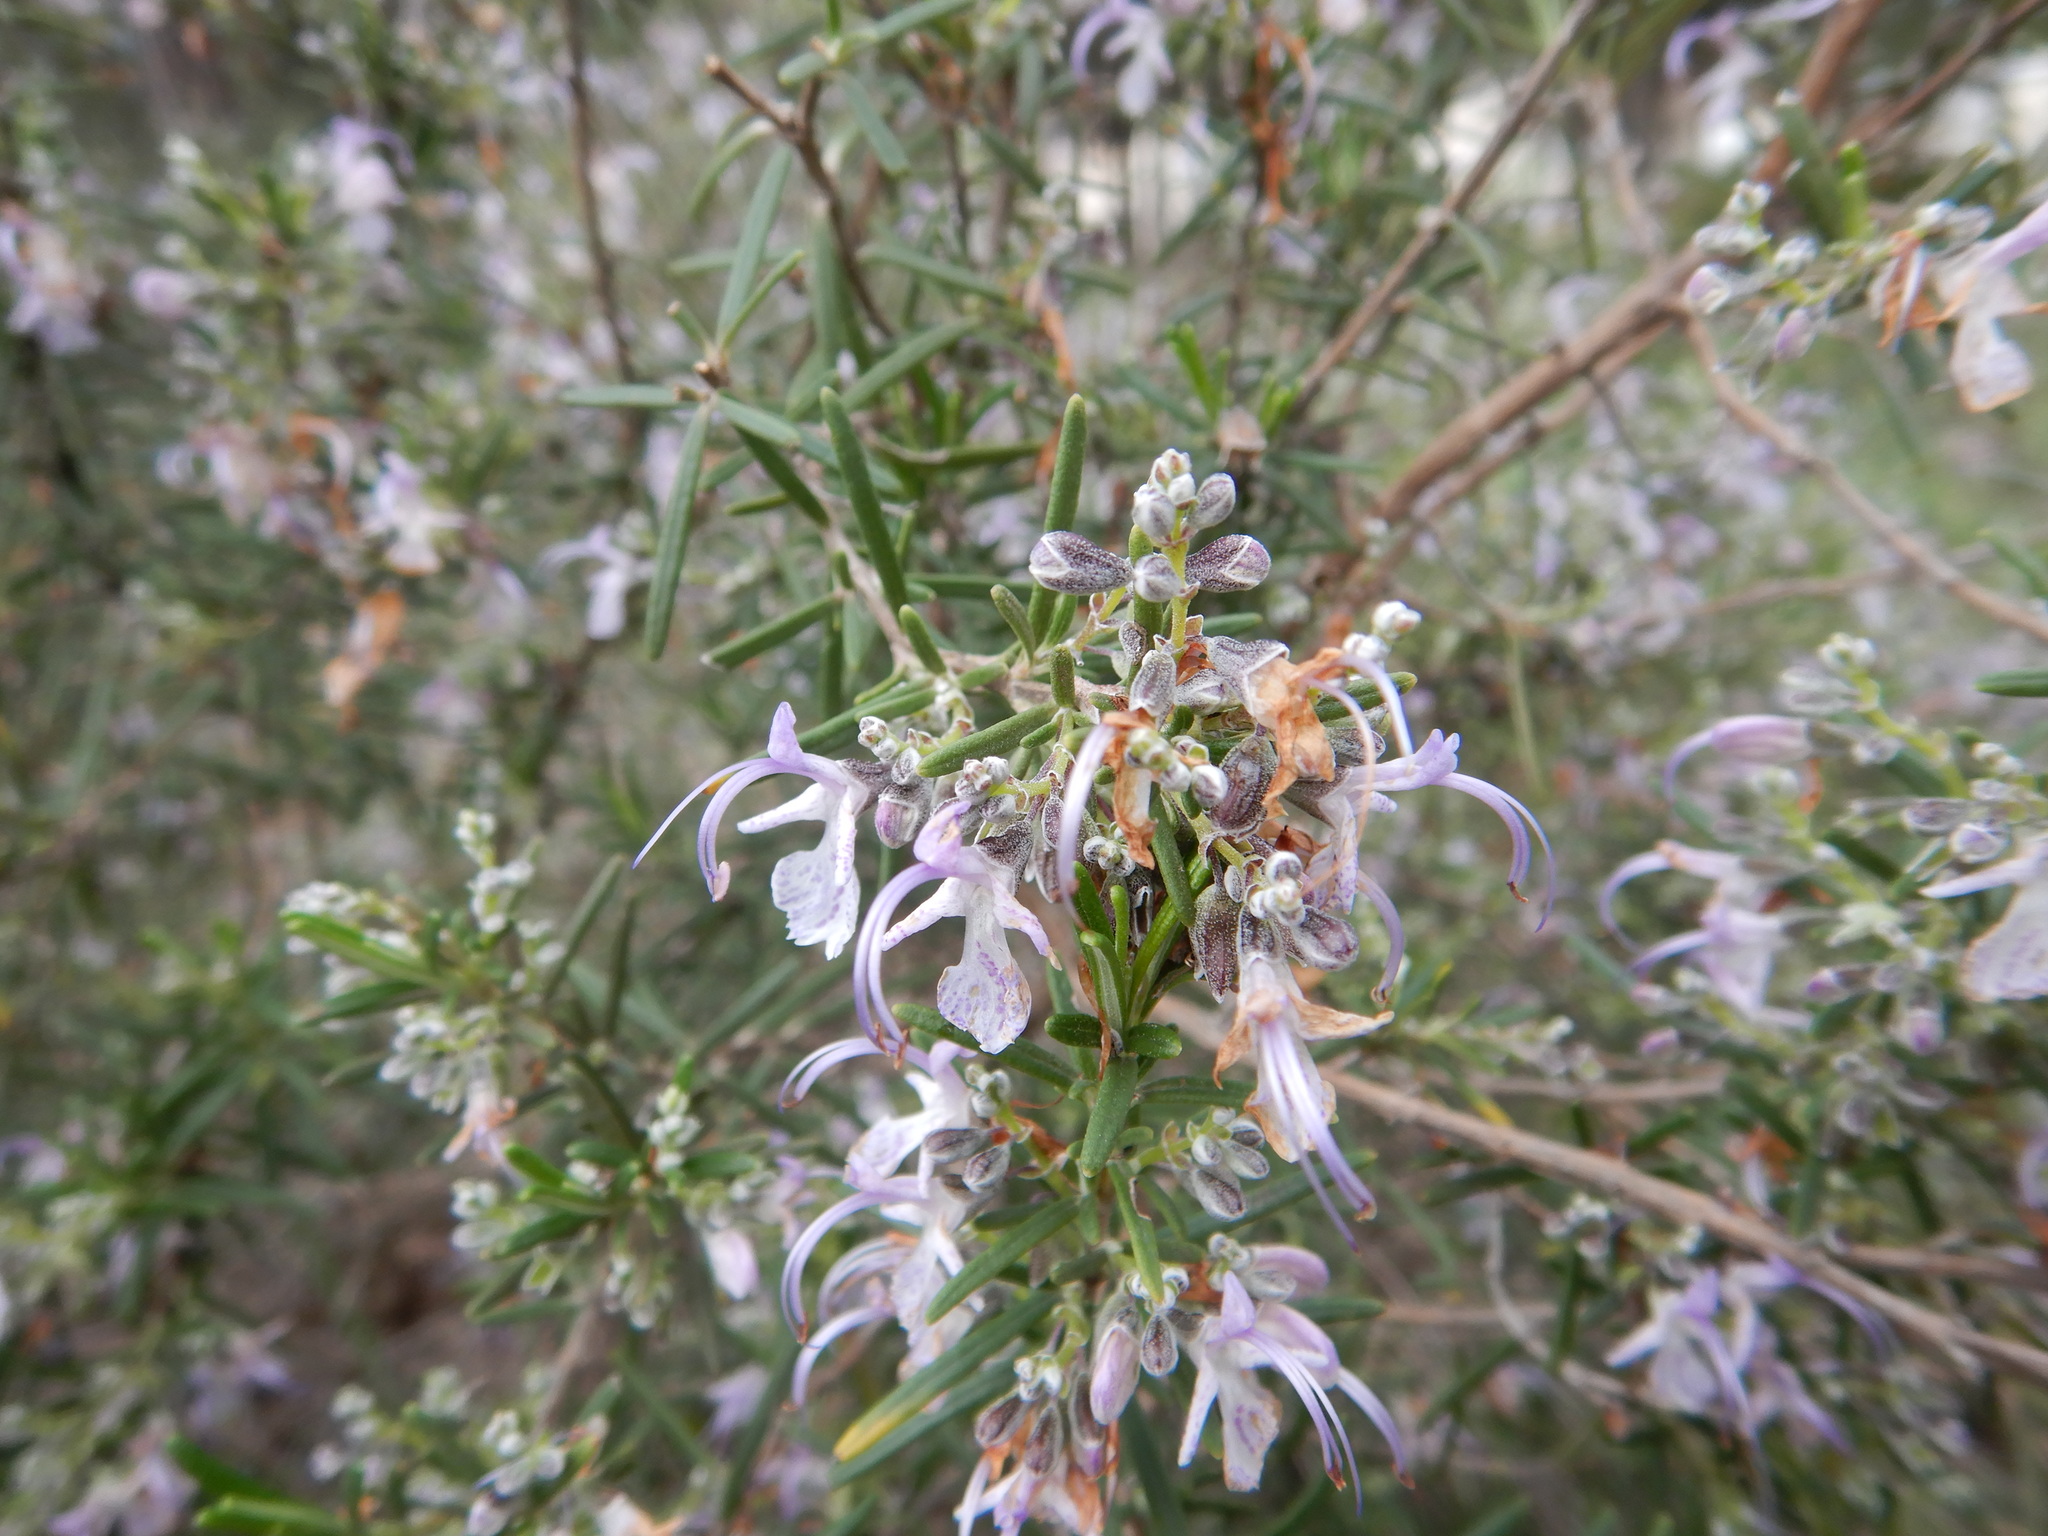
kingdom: Plantae
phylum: Tracheophyta
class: Magnoliopsida
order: Lamiales
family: Lamiaceae
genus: Salvia
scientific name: Salvia rosmarinus
